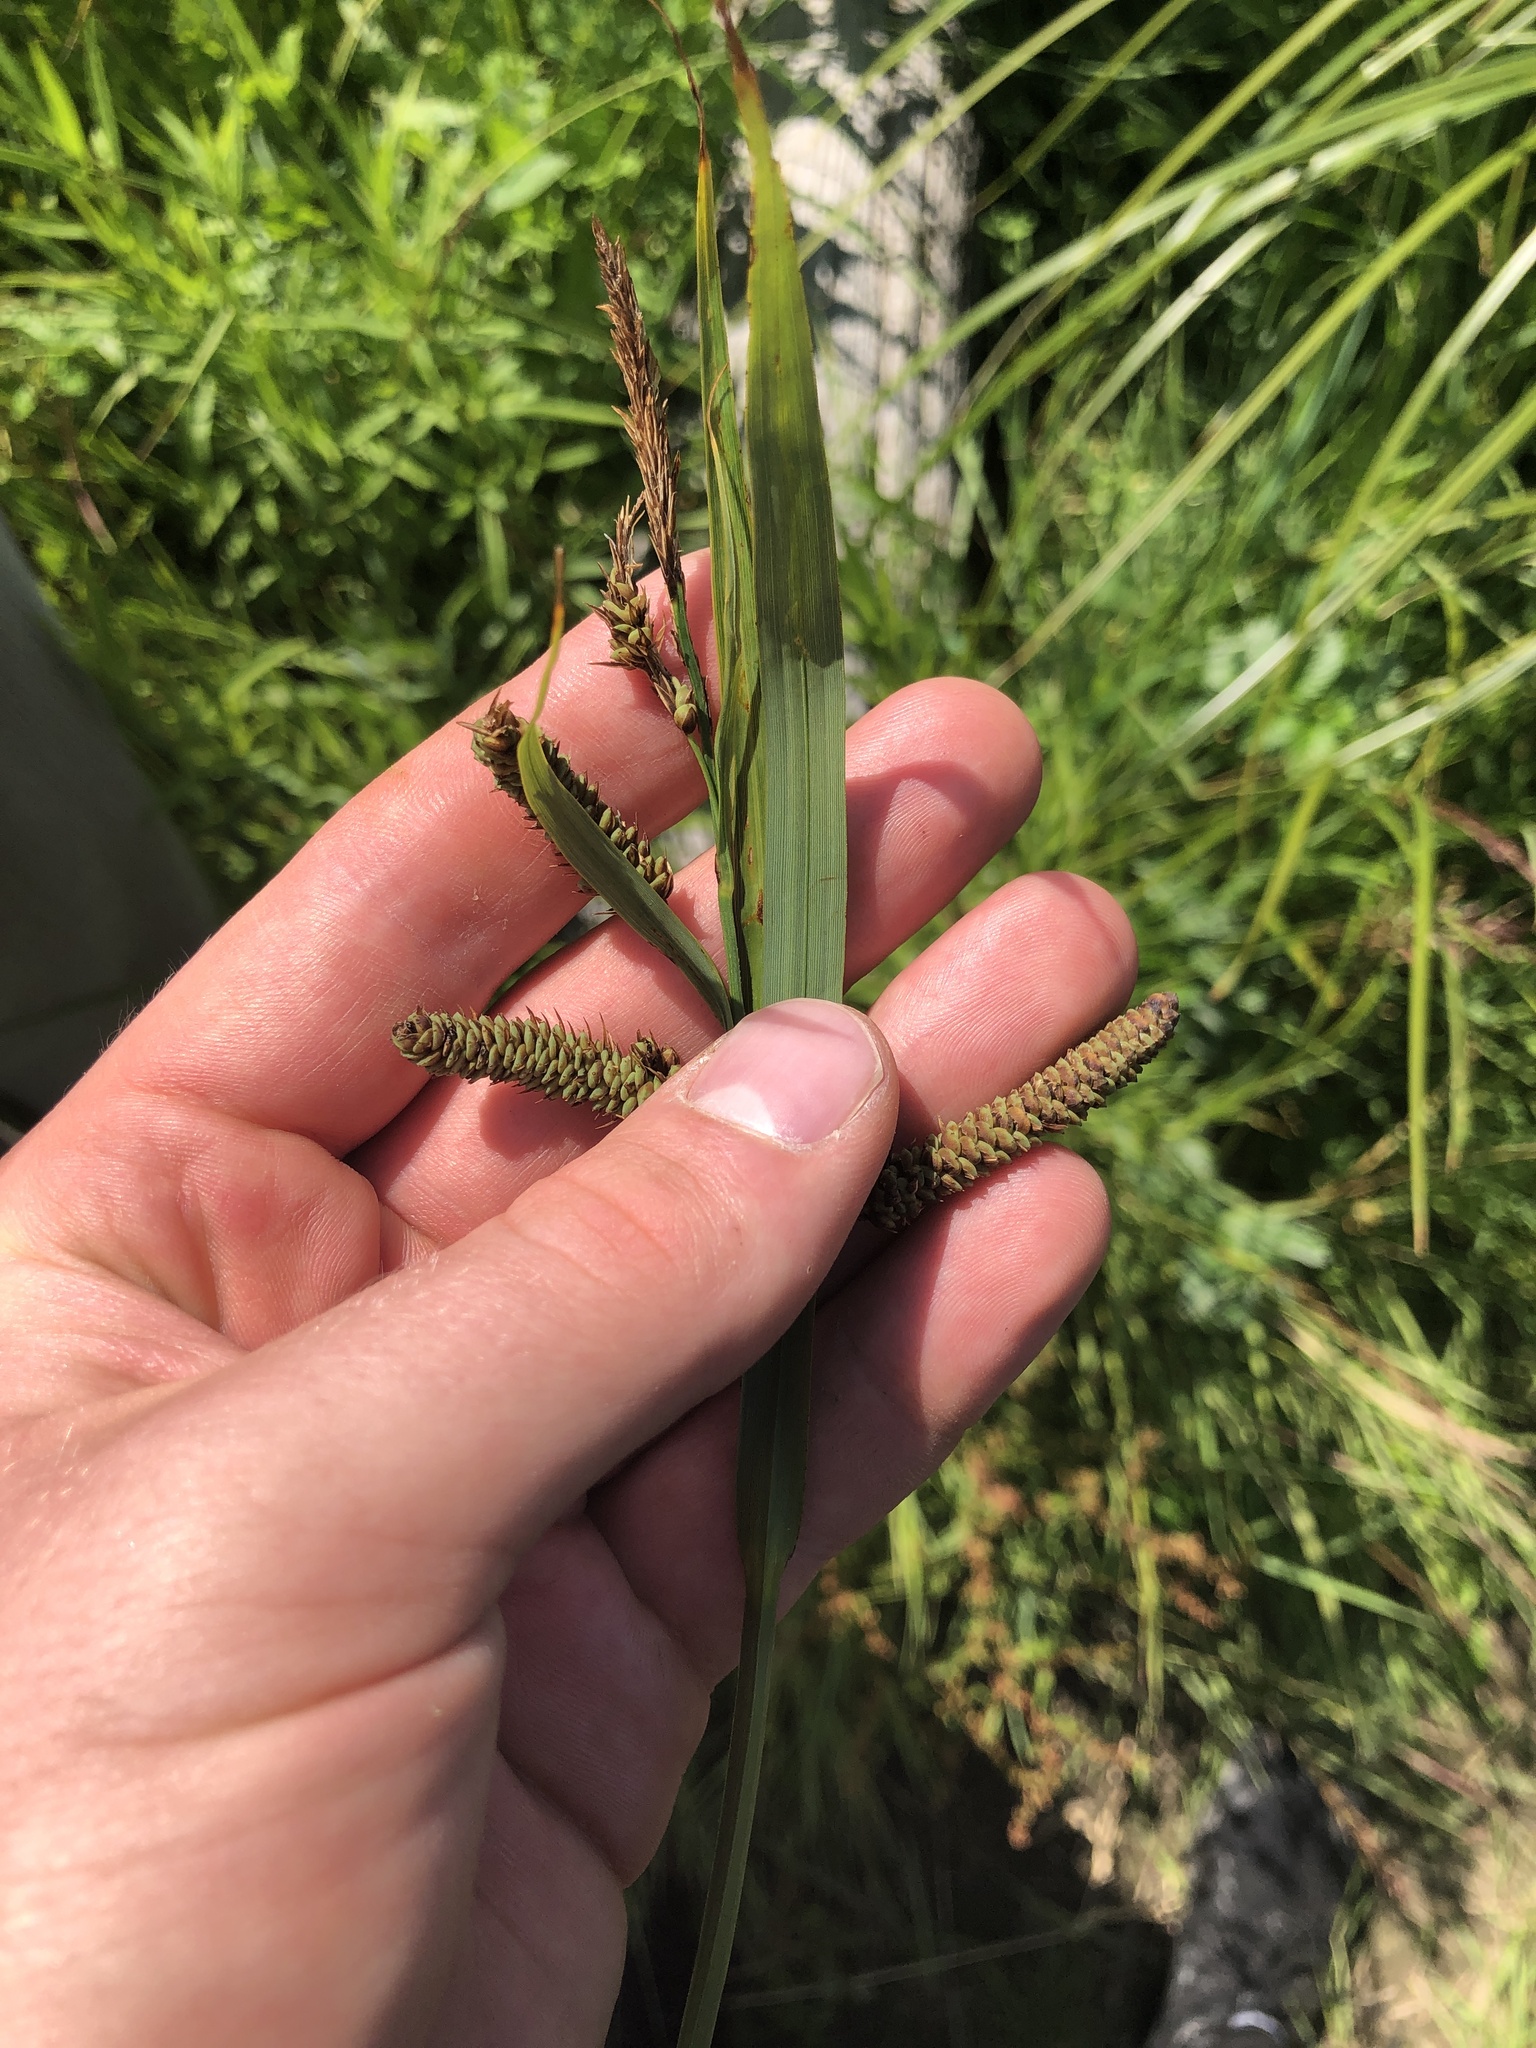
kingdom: Plantae
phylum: Tracheophyta
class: Liliopsida
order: Poales
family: Cyperaceae
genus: Carex
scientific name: Carex lyngbyei
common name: Lyngbye's sedge
